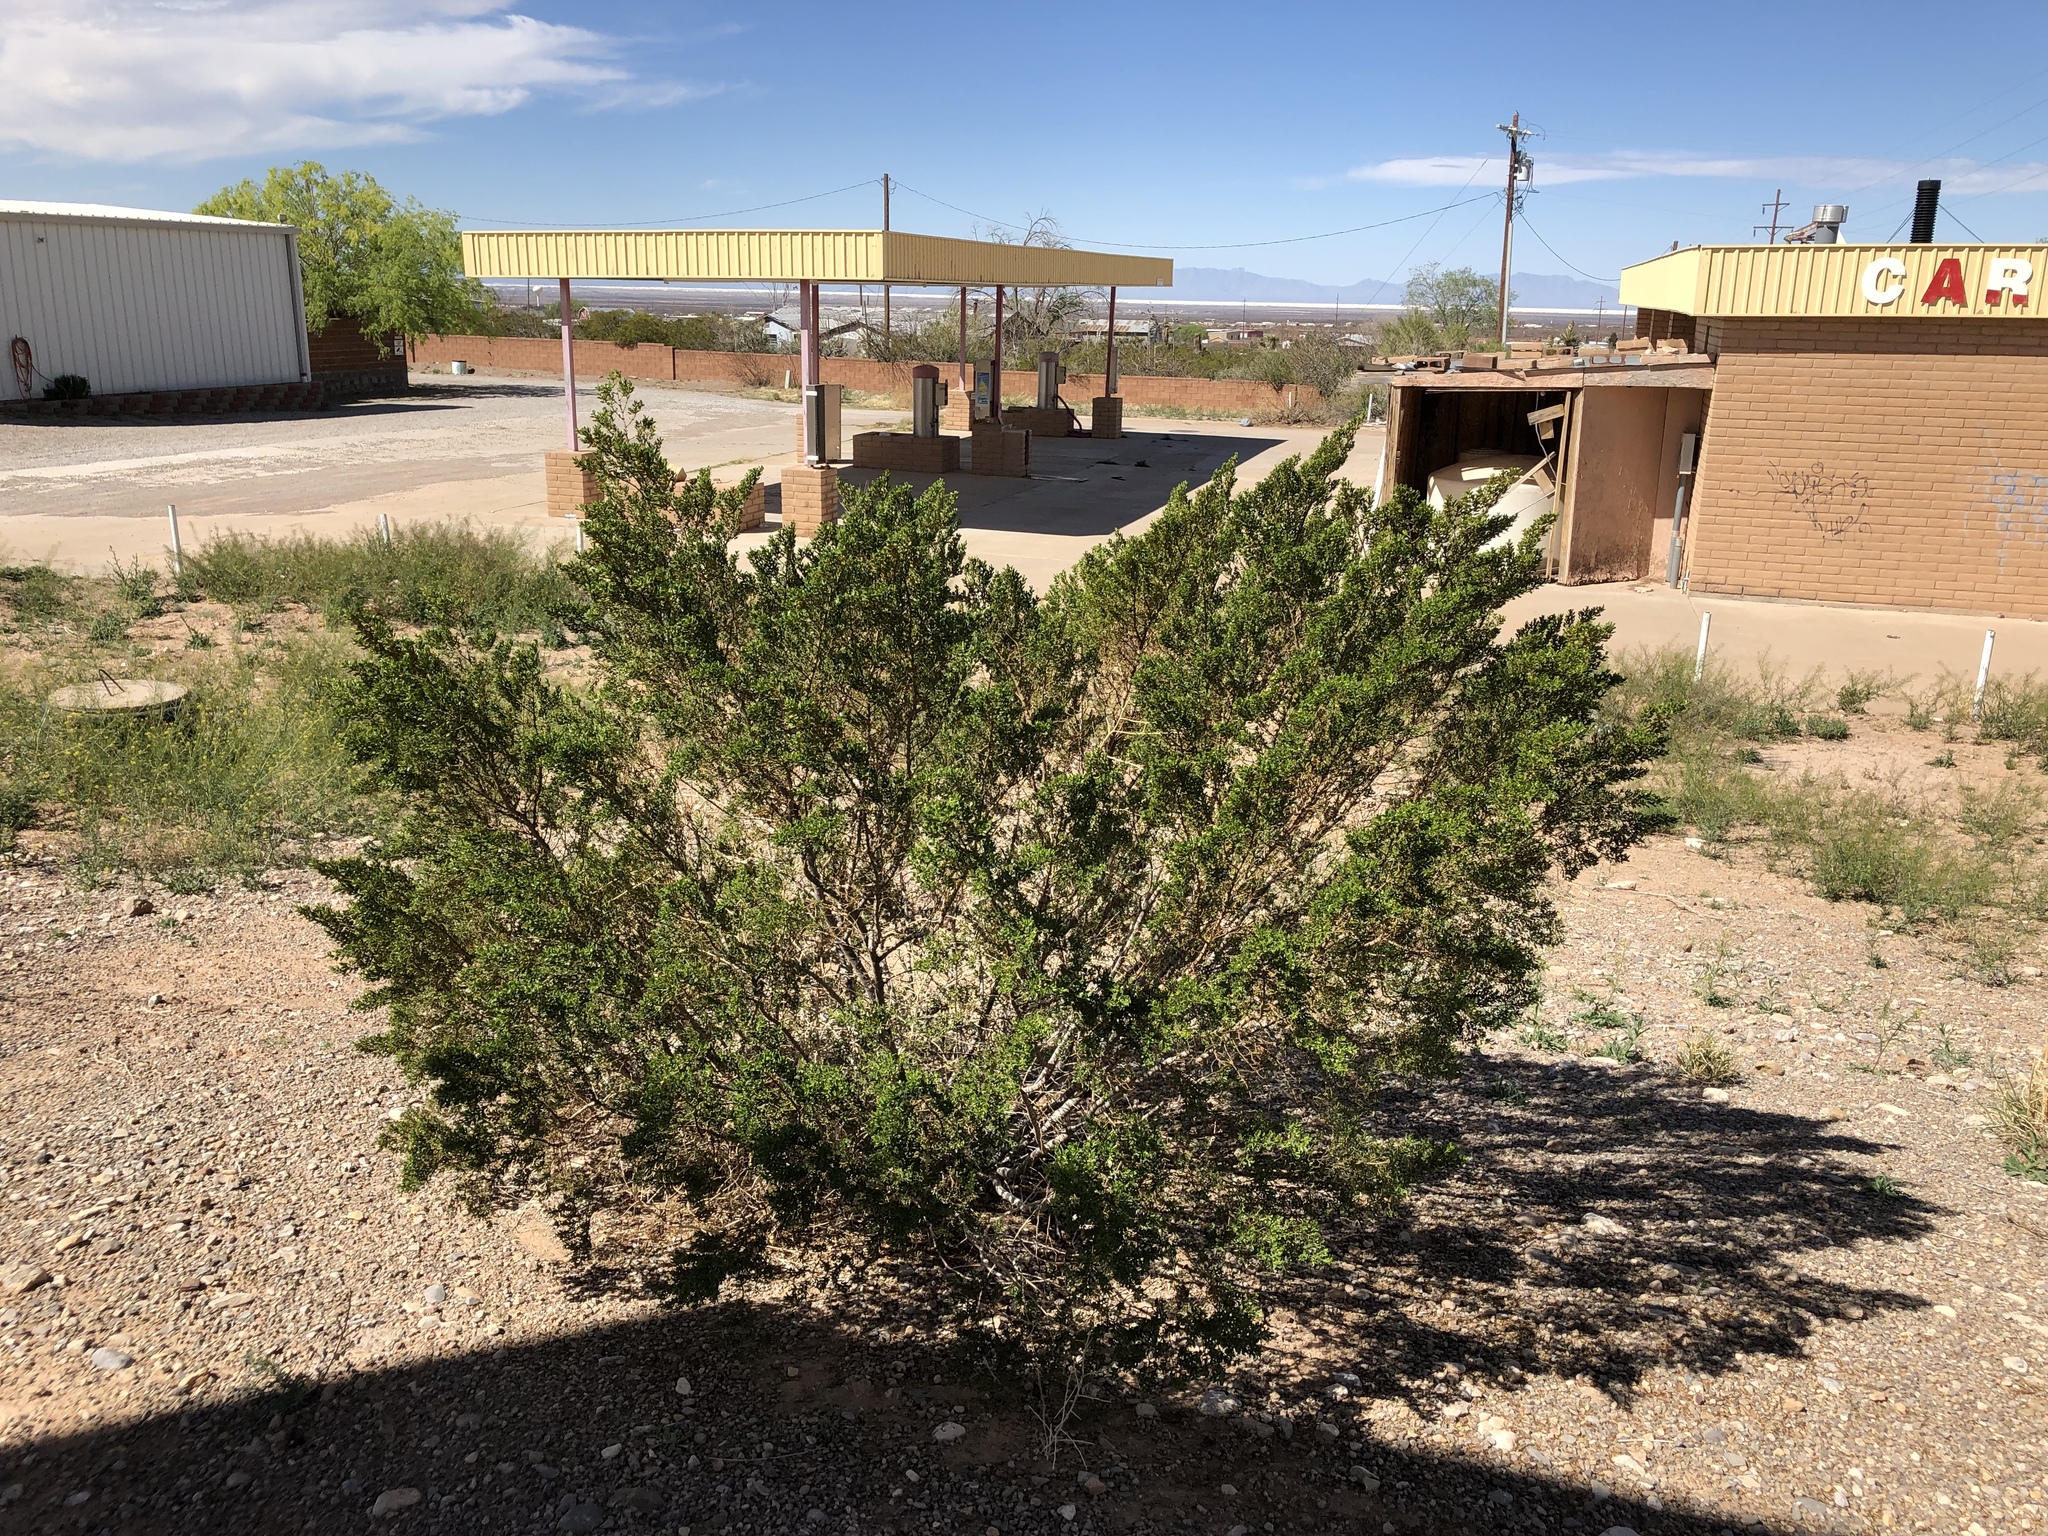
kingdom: Plantae
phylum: Tracheophyta
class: Magnoliopsida
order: Zygophyllales
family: Zygophyllaceae
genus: Larrea
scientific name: Larrea tridentata
